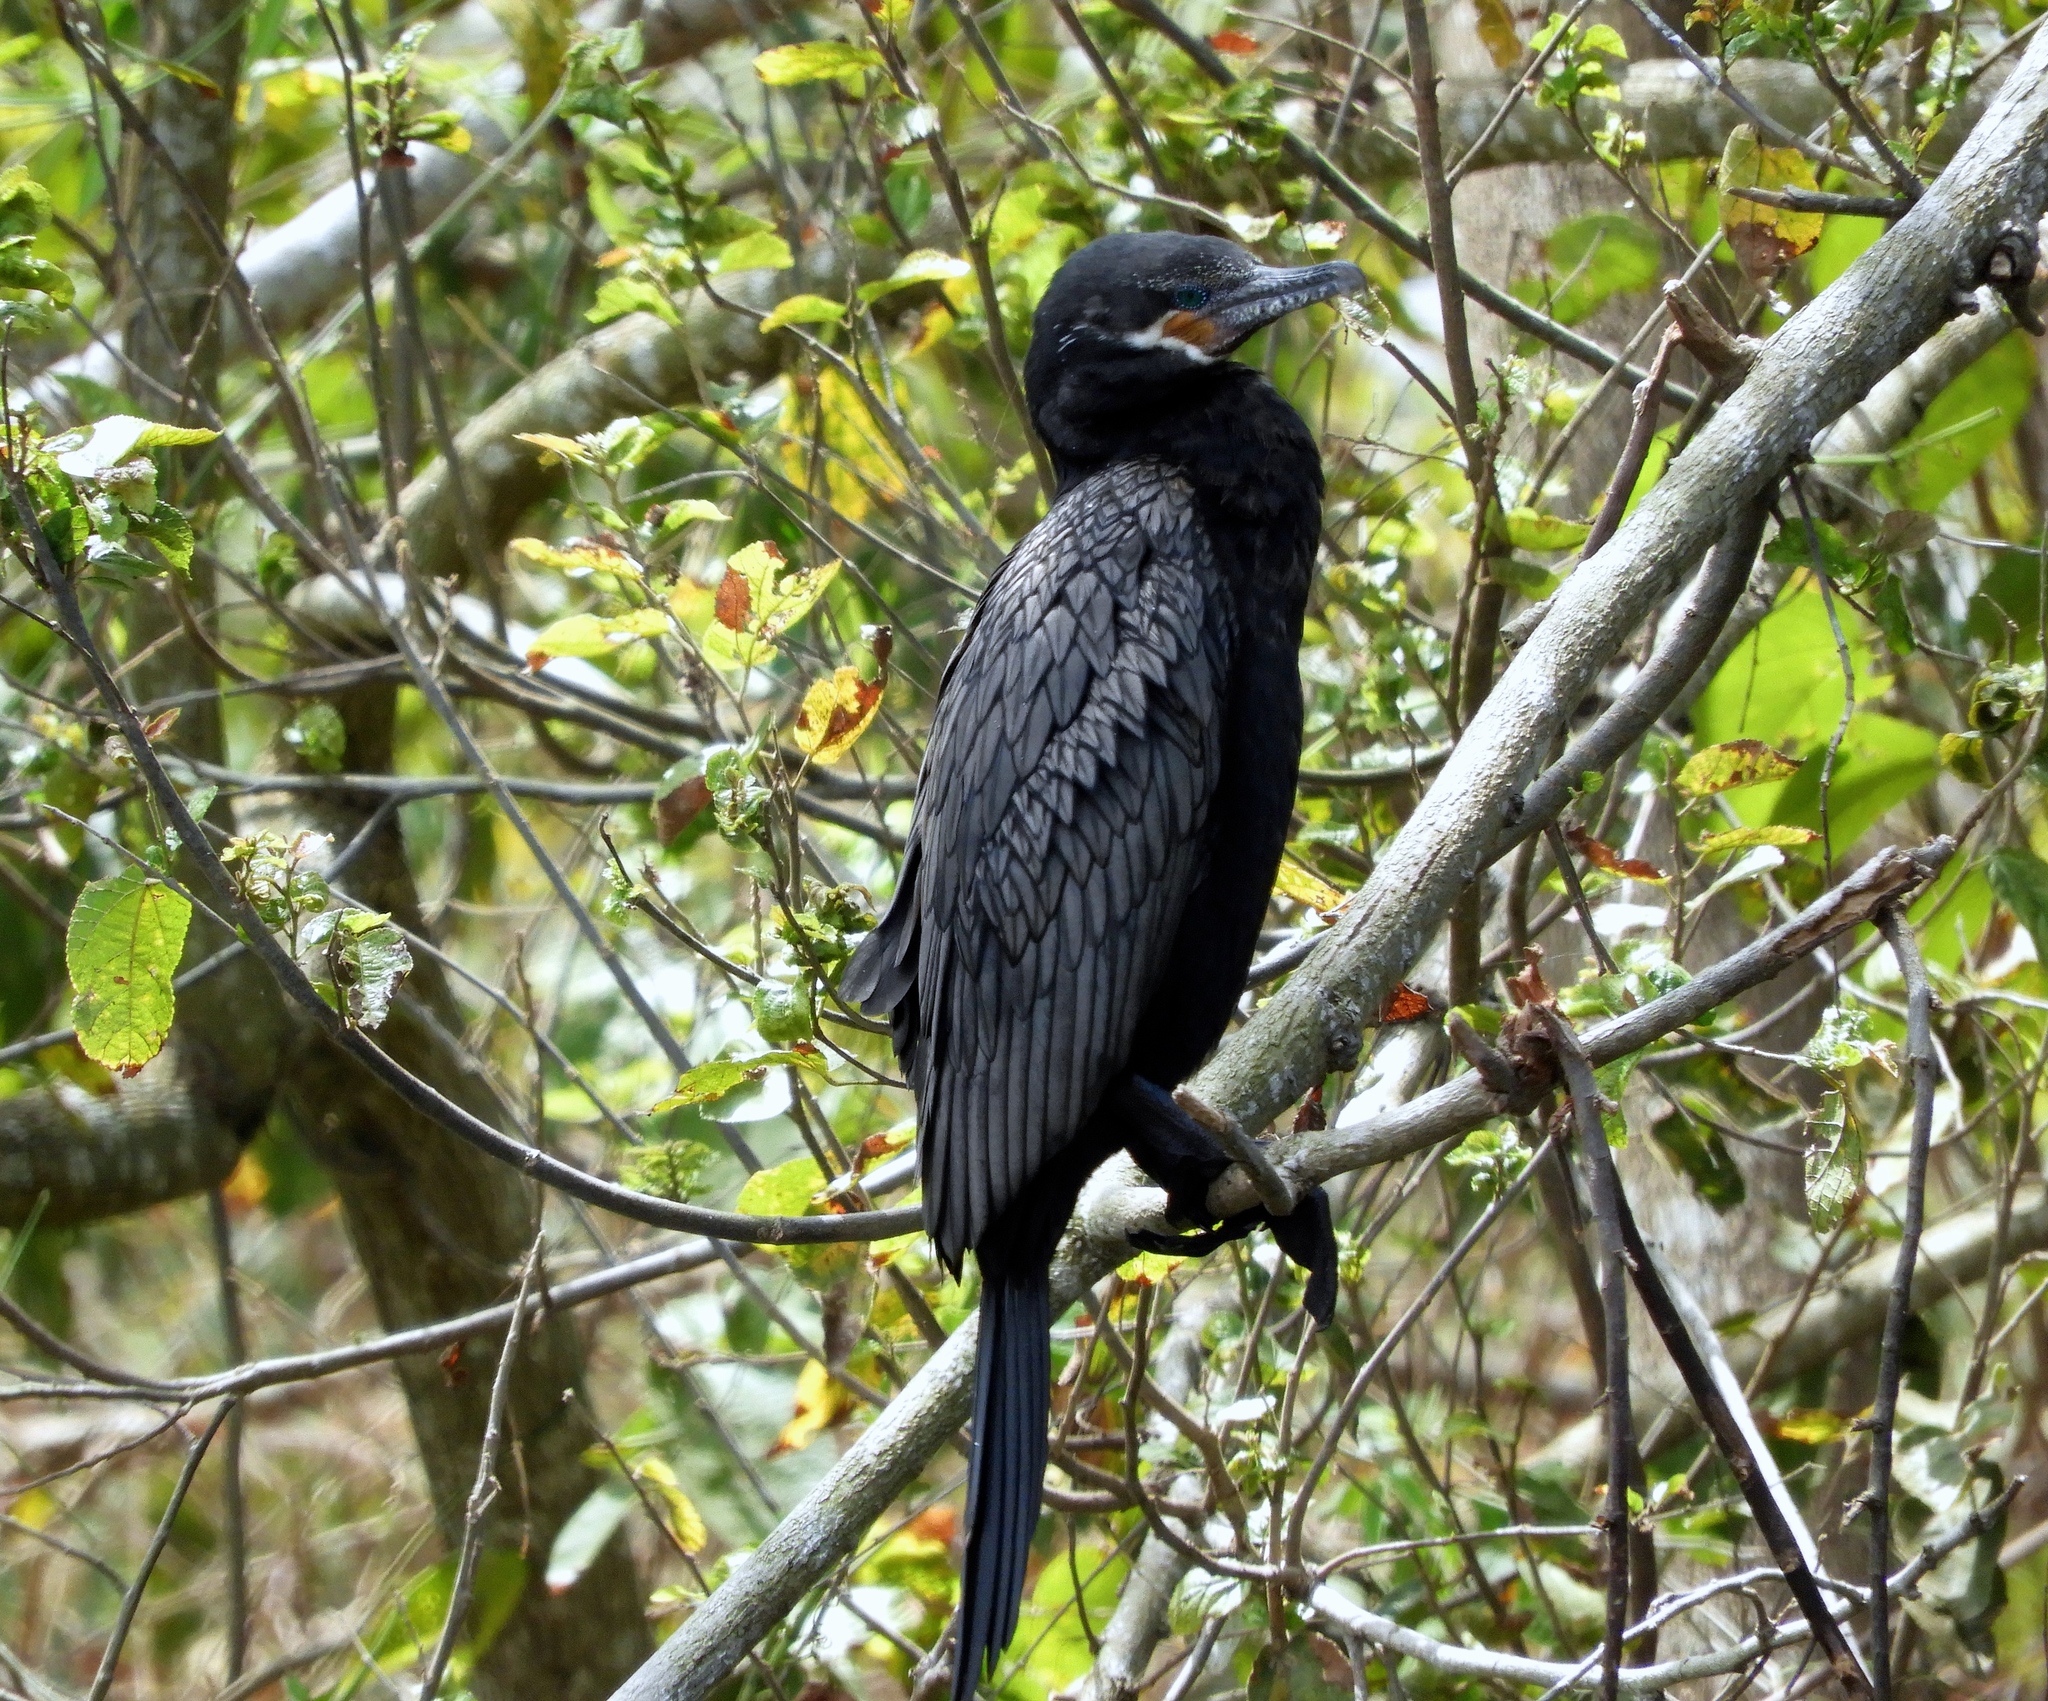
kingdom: Animalia
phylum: Chordata
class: Aves
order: Suliformes
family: Phalacrocoracidae
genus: Phalacrocorax
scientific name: Phalacrocorax brasilianus
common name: Neotropic cormorant
